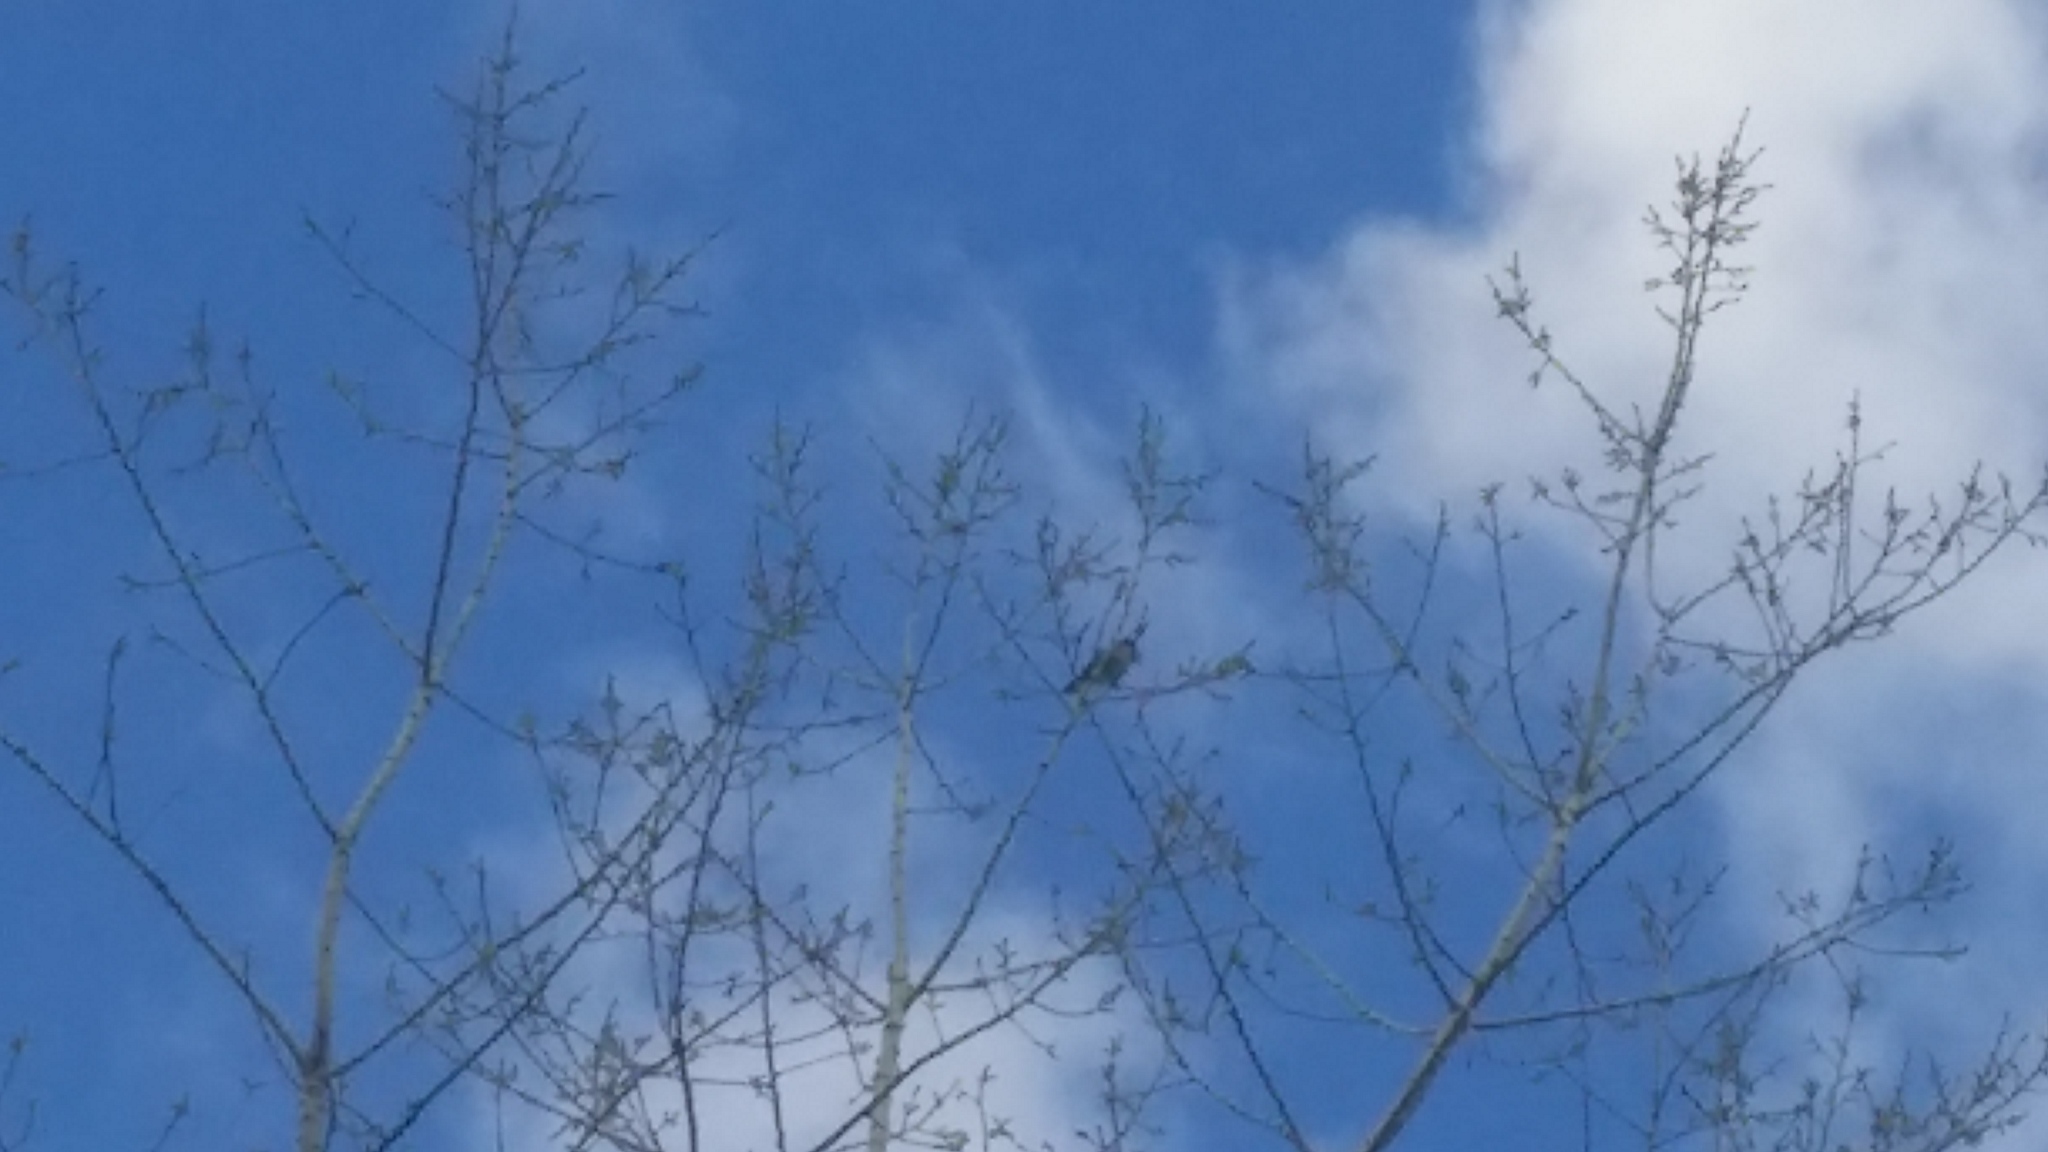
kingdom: Animalia
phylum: Chordata
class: Aves
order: Piciformes
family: Picidae
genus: Colaptes
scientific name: Colaptes auratus
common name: Northern flicker
